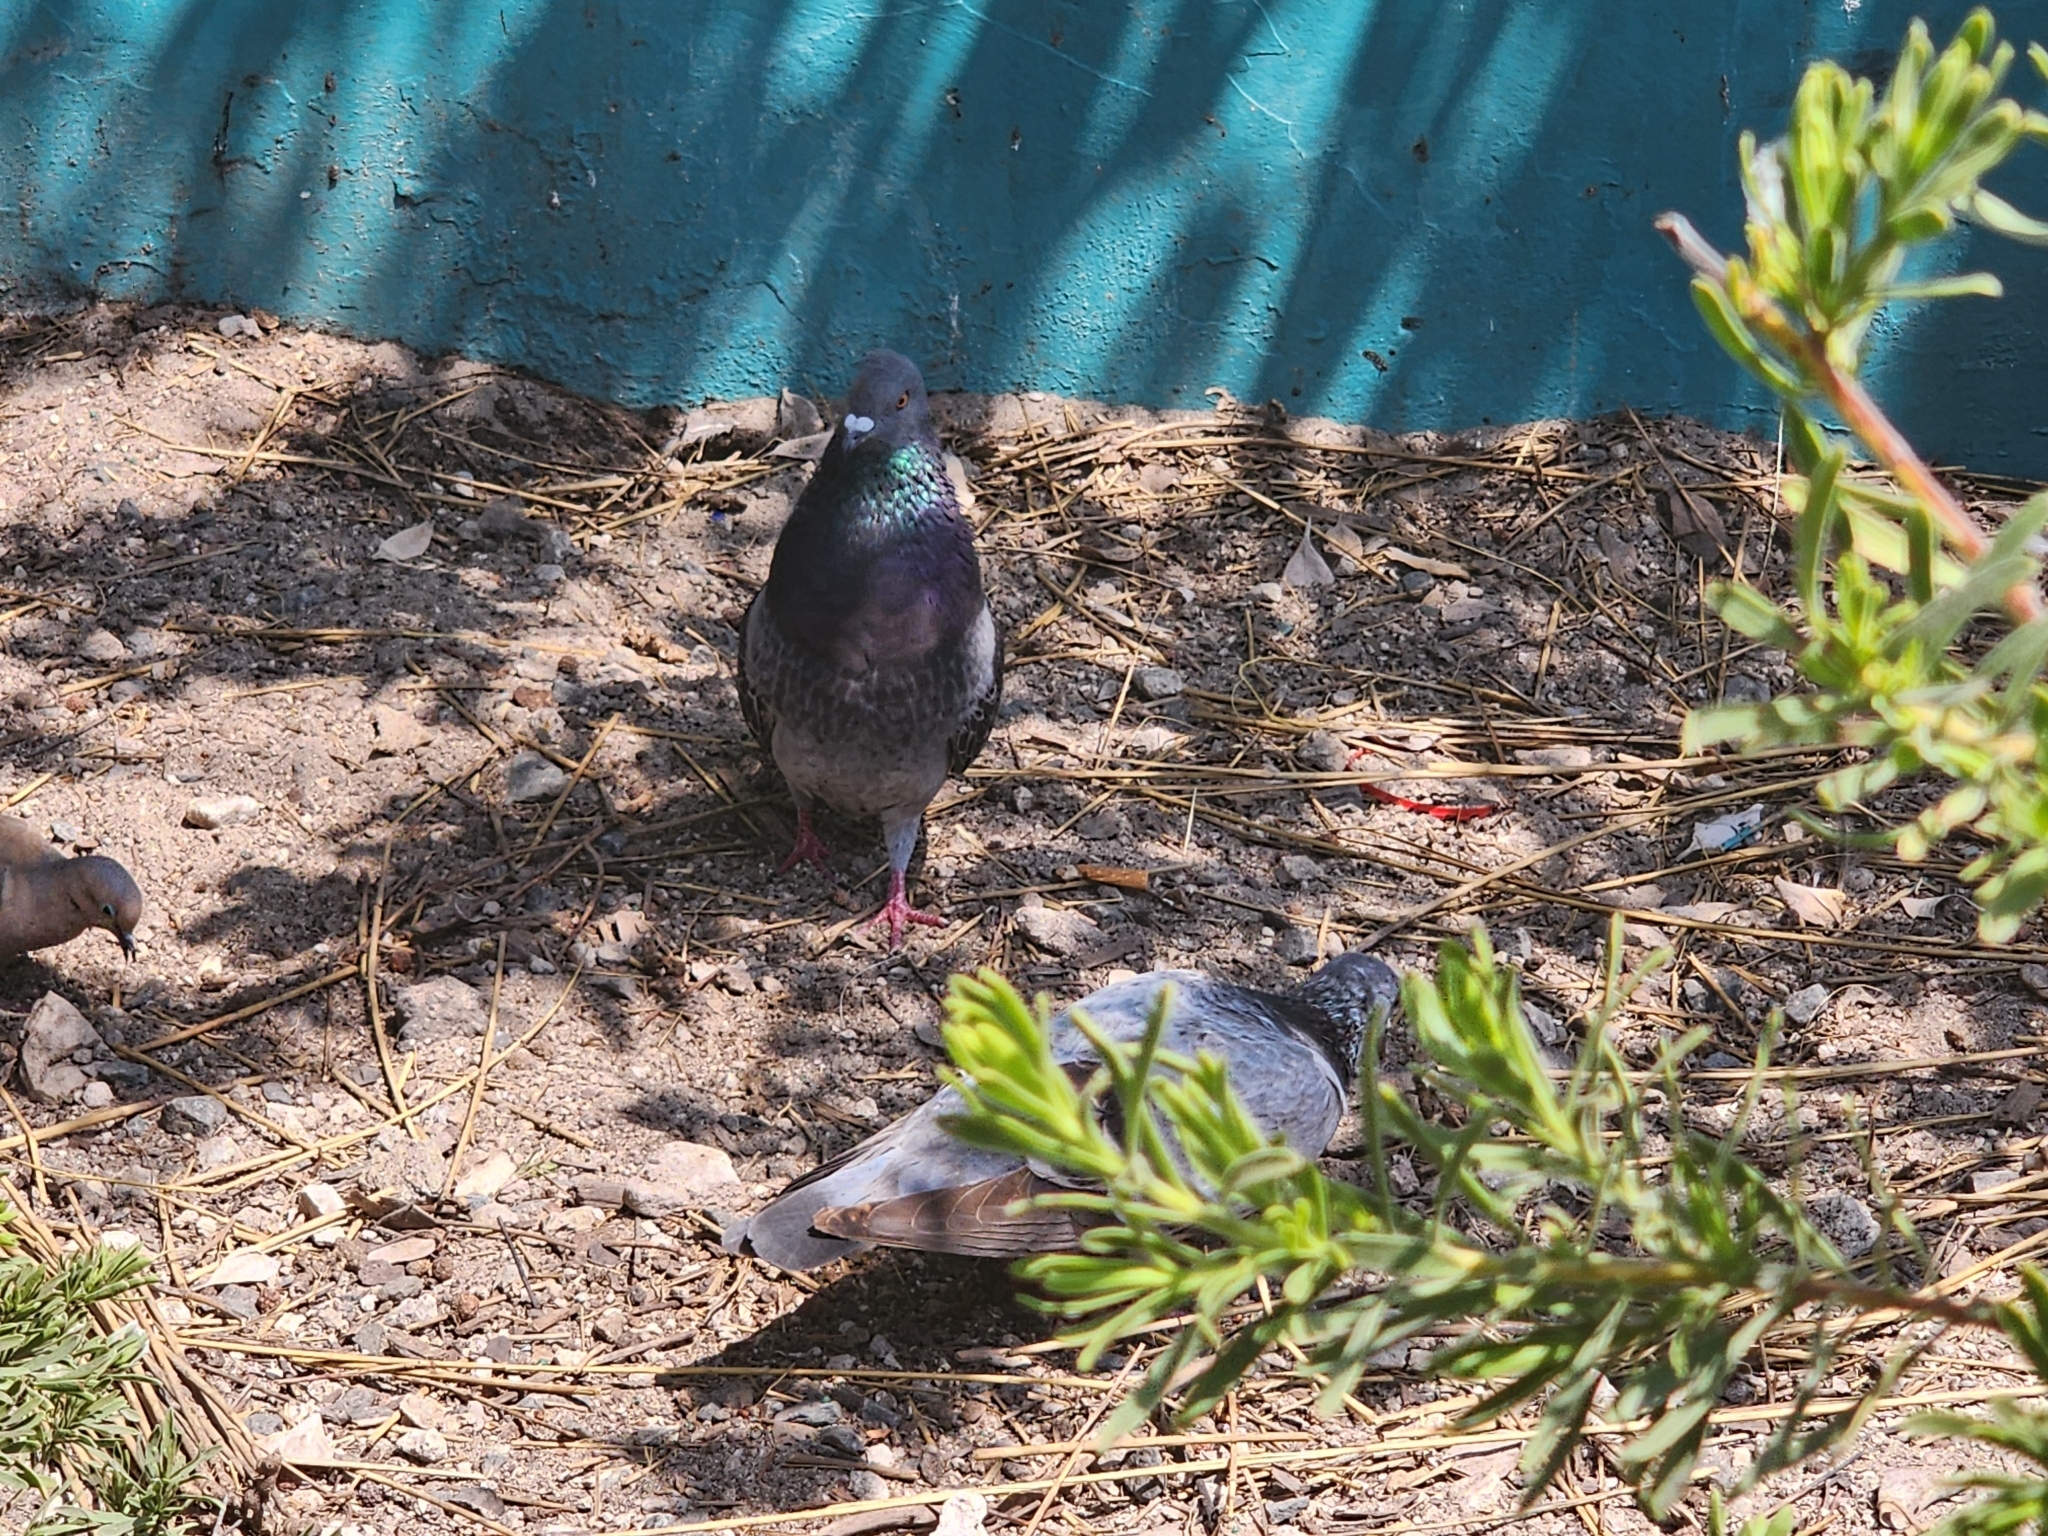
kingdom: Animalia
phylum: Chordata
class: Aves
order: Columbiformes
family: Columbidae
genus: Zenaida
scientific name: Zenaida macroura
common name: Mourning dove
